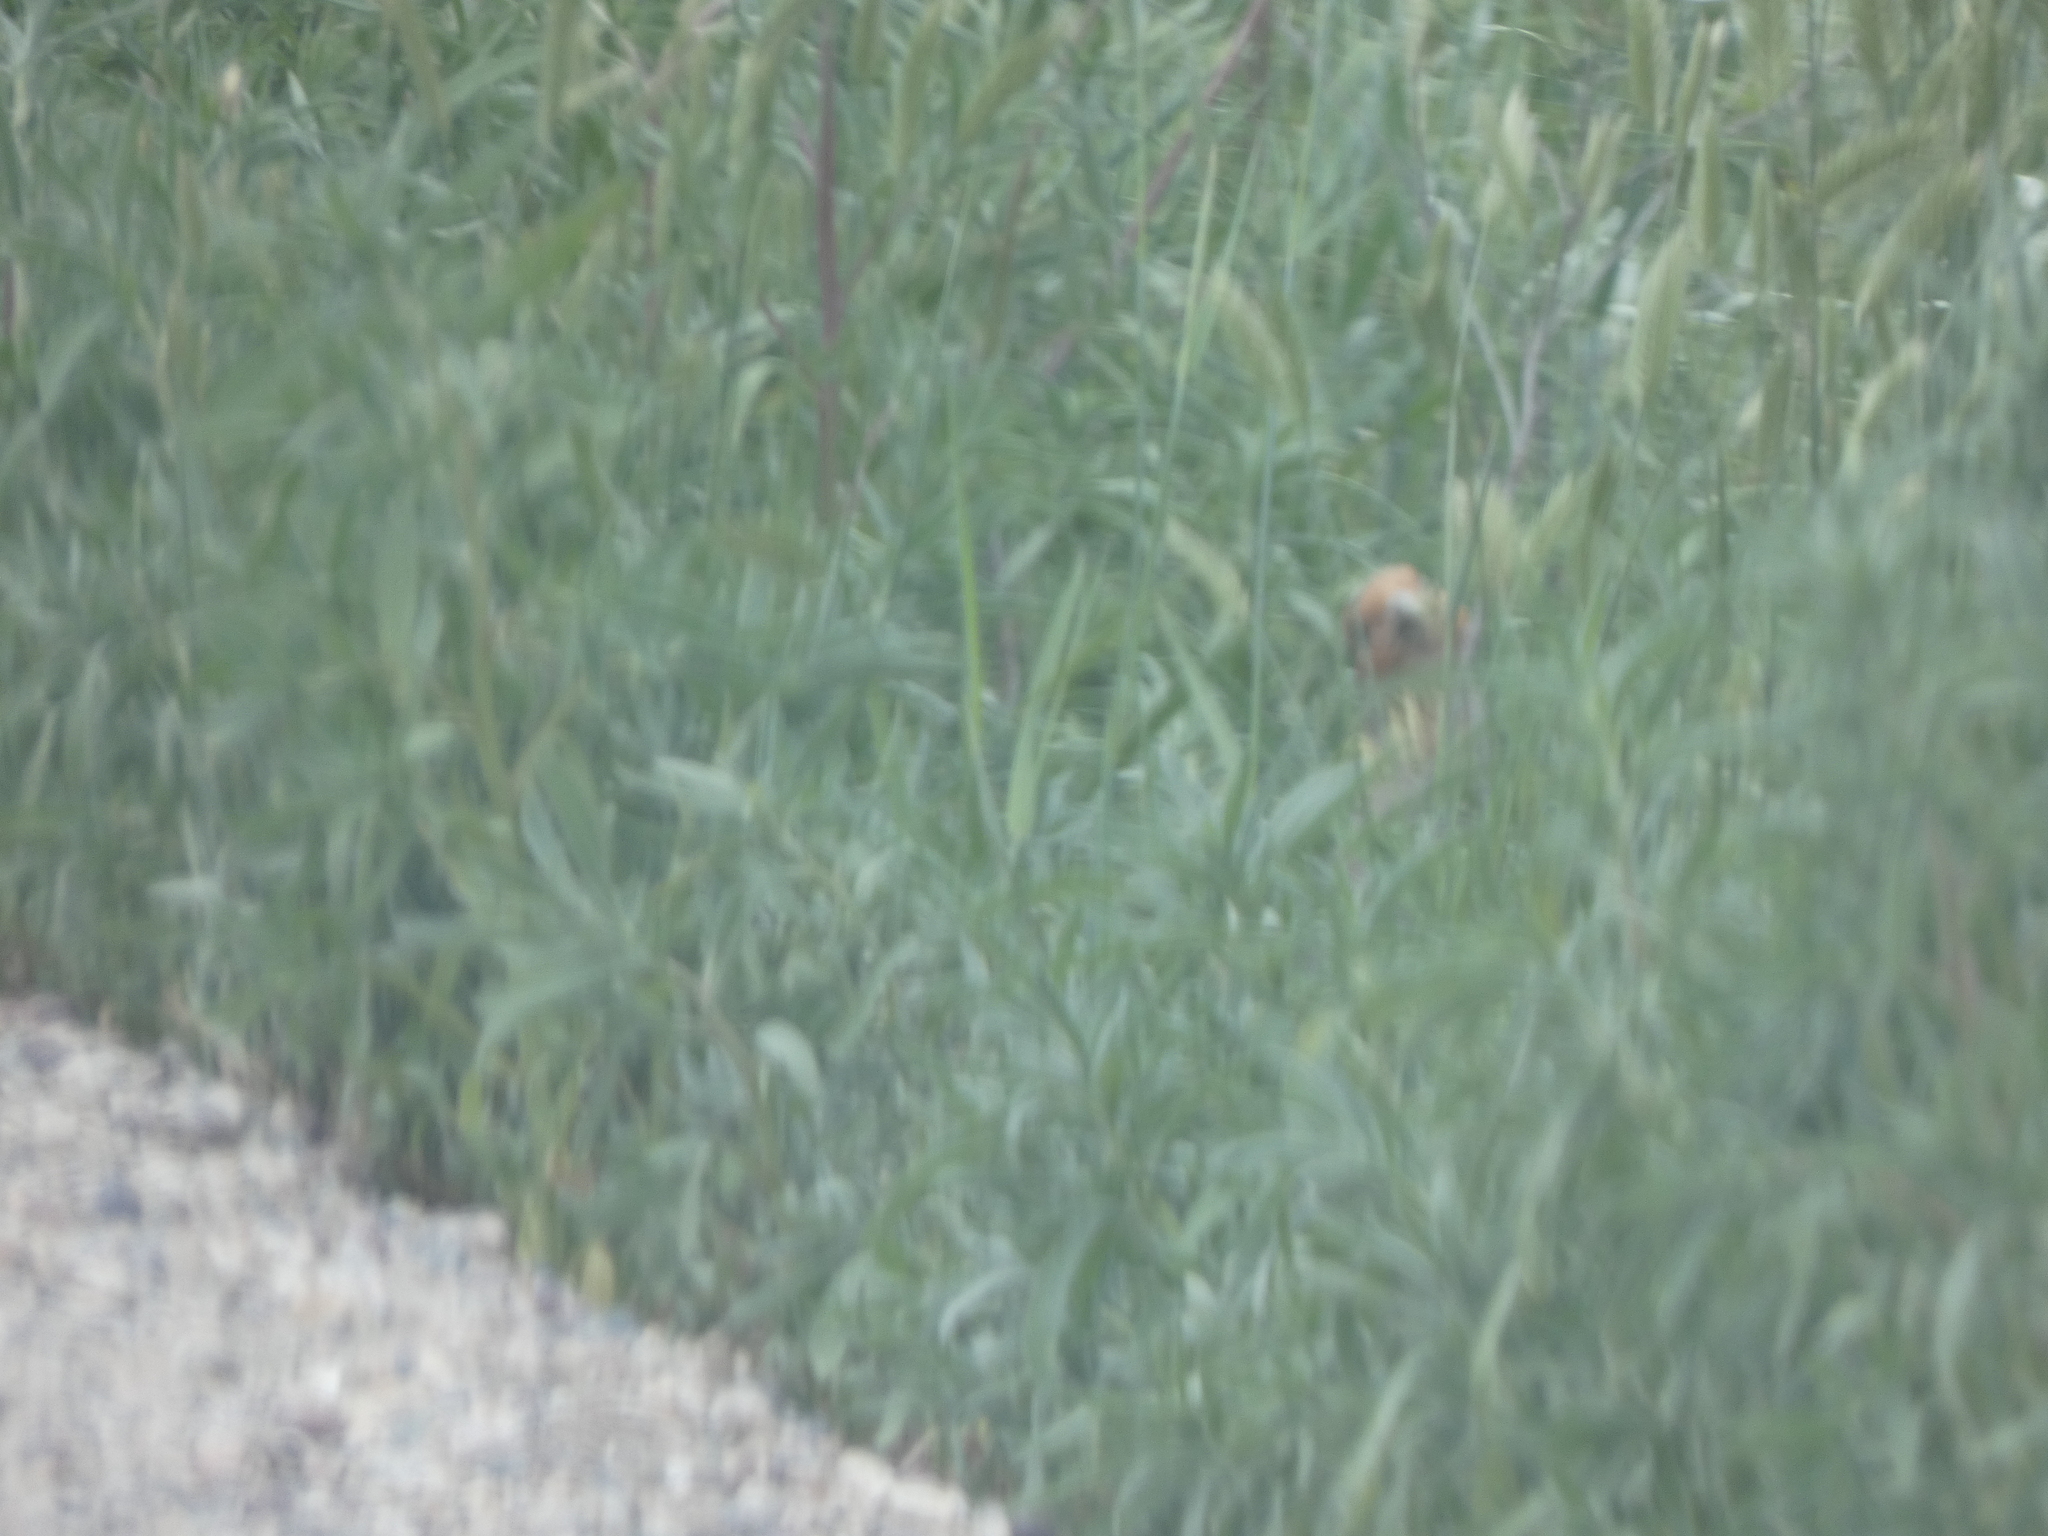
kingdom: Animalia
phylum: Chordata
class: Aves
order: Galliformes
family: Phasianidae
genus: Perdix
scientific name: Perdix perdix
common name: Grey partridge
